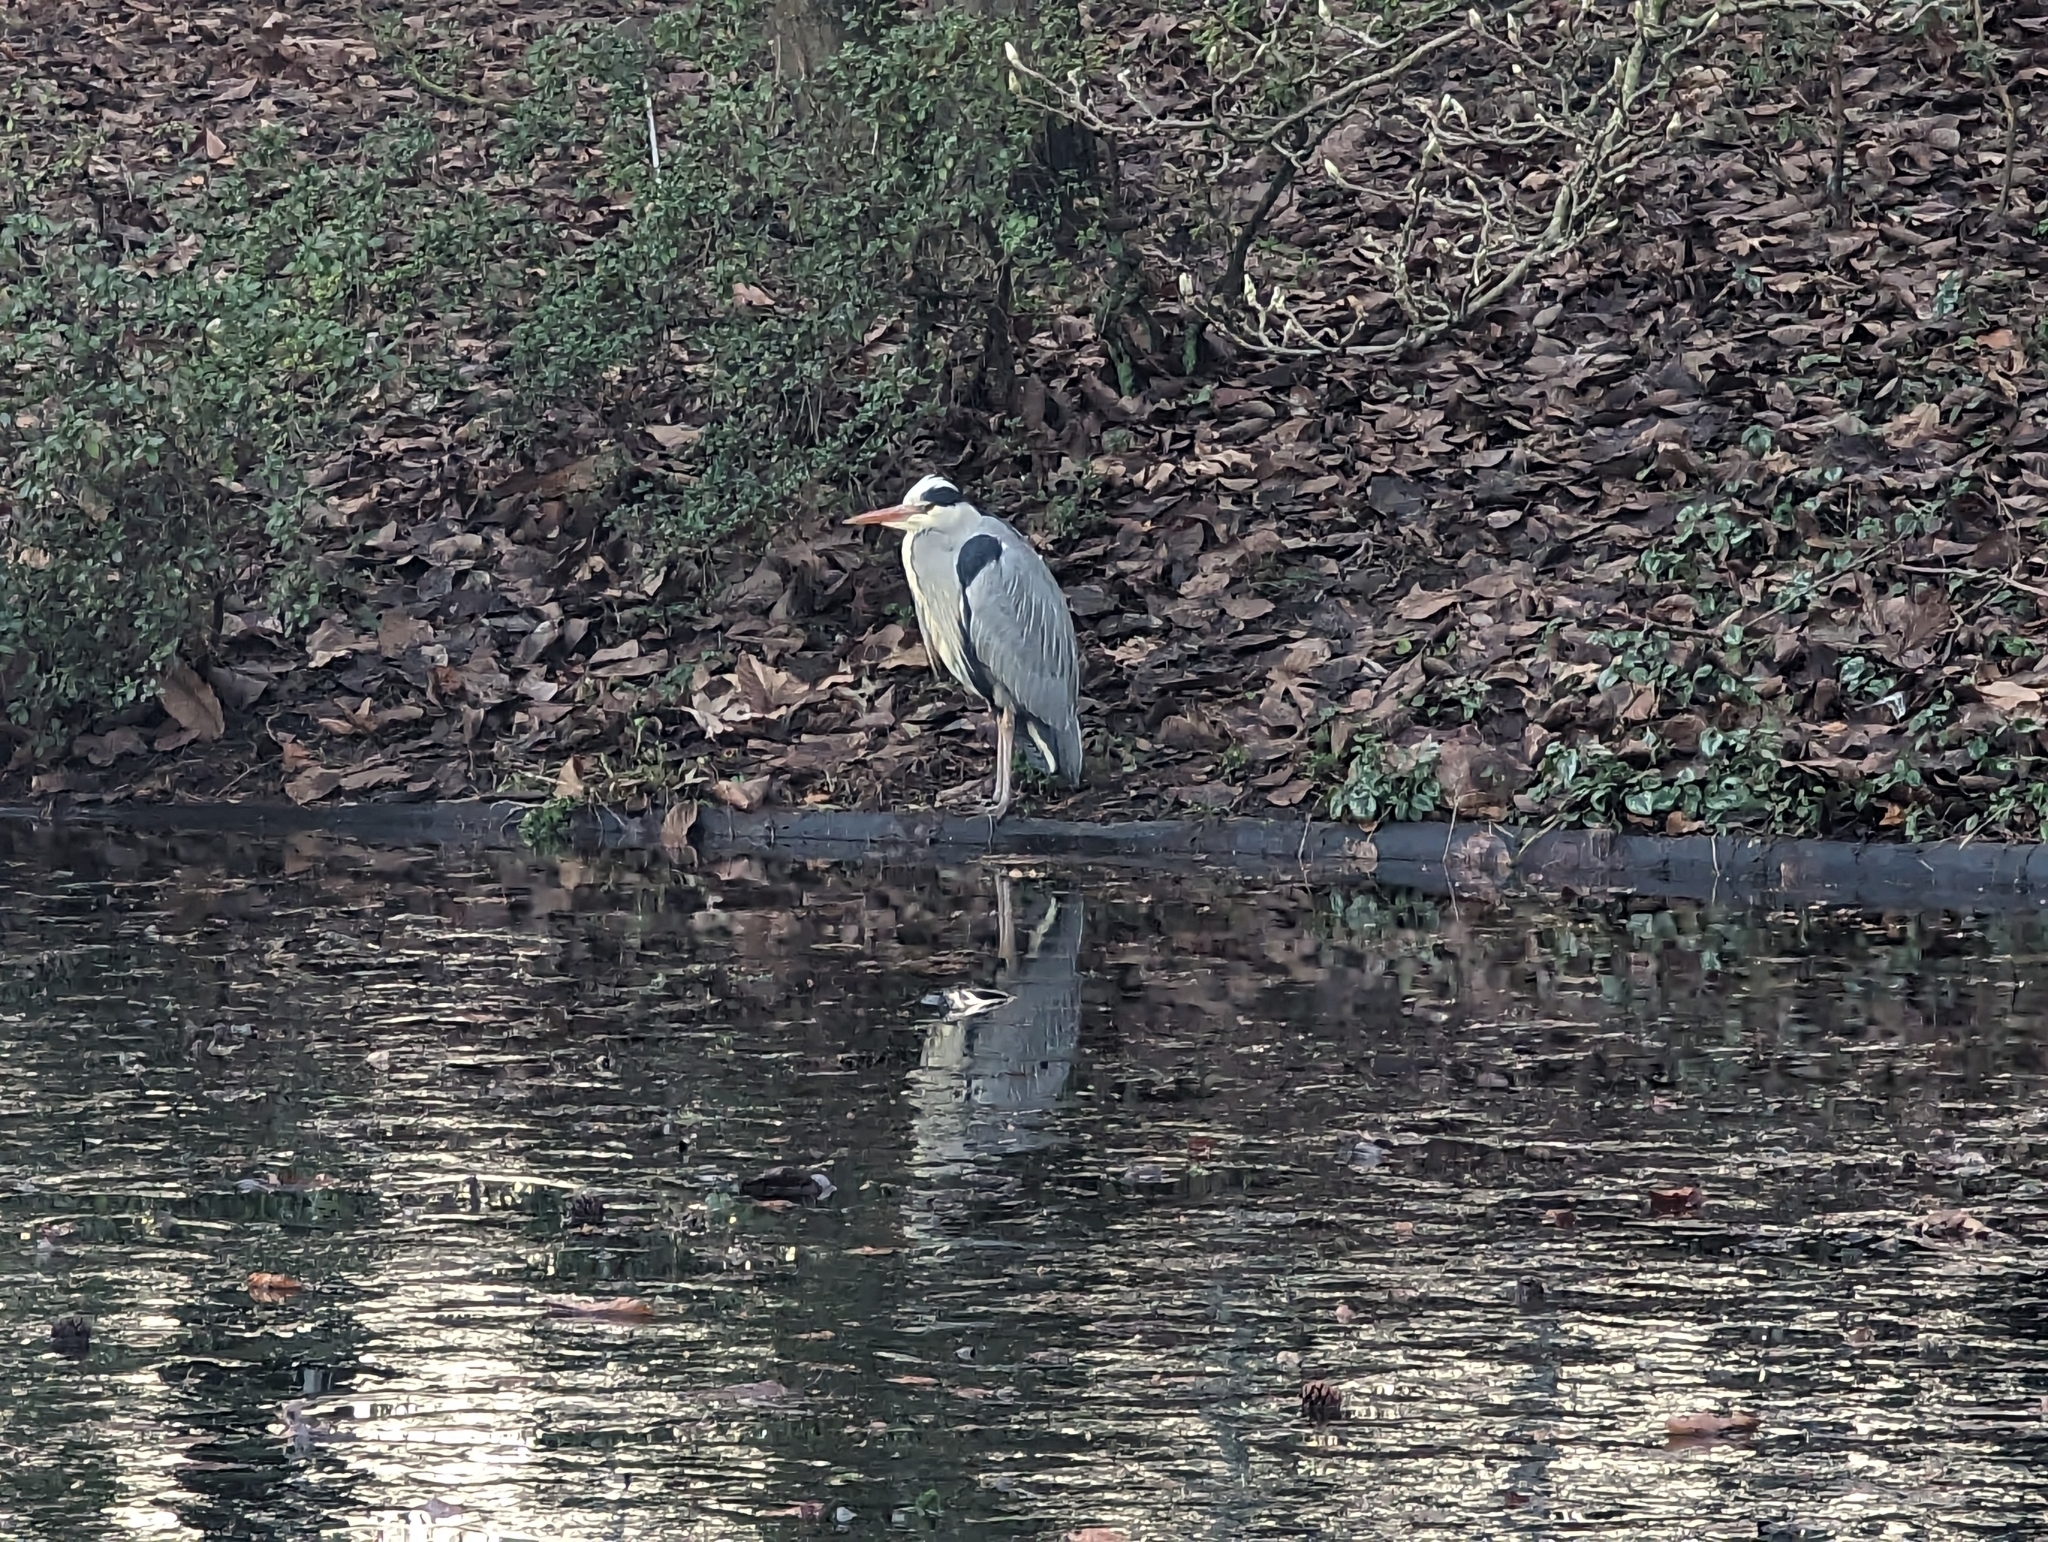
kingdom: Animalia
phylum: Chordata
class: Aves
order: Pelecaniformes
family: Ardeidae
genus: Ardea
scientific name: Ardea cinerea
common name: Grey heron
